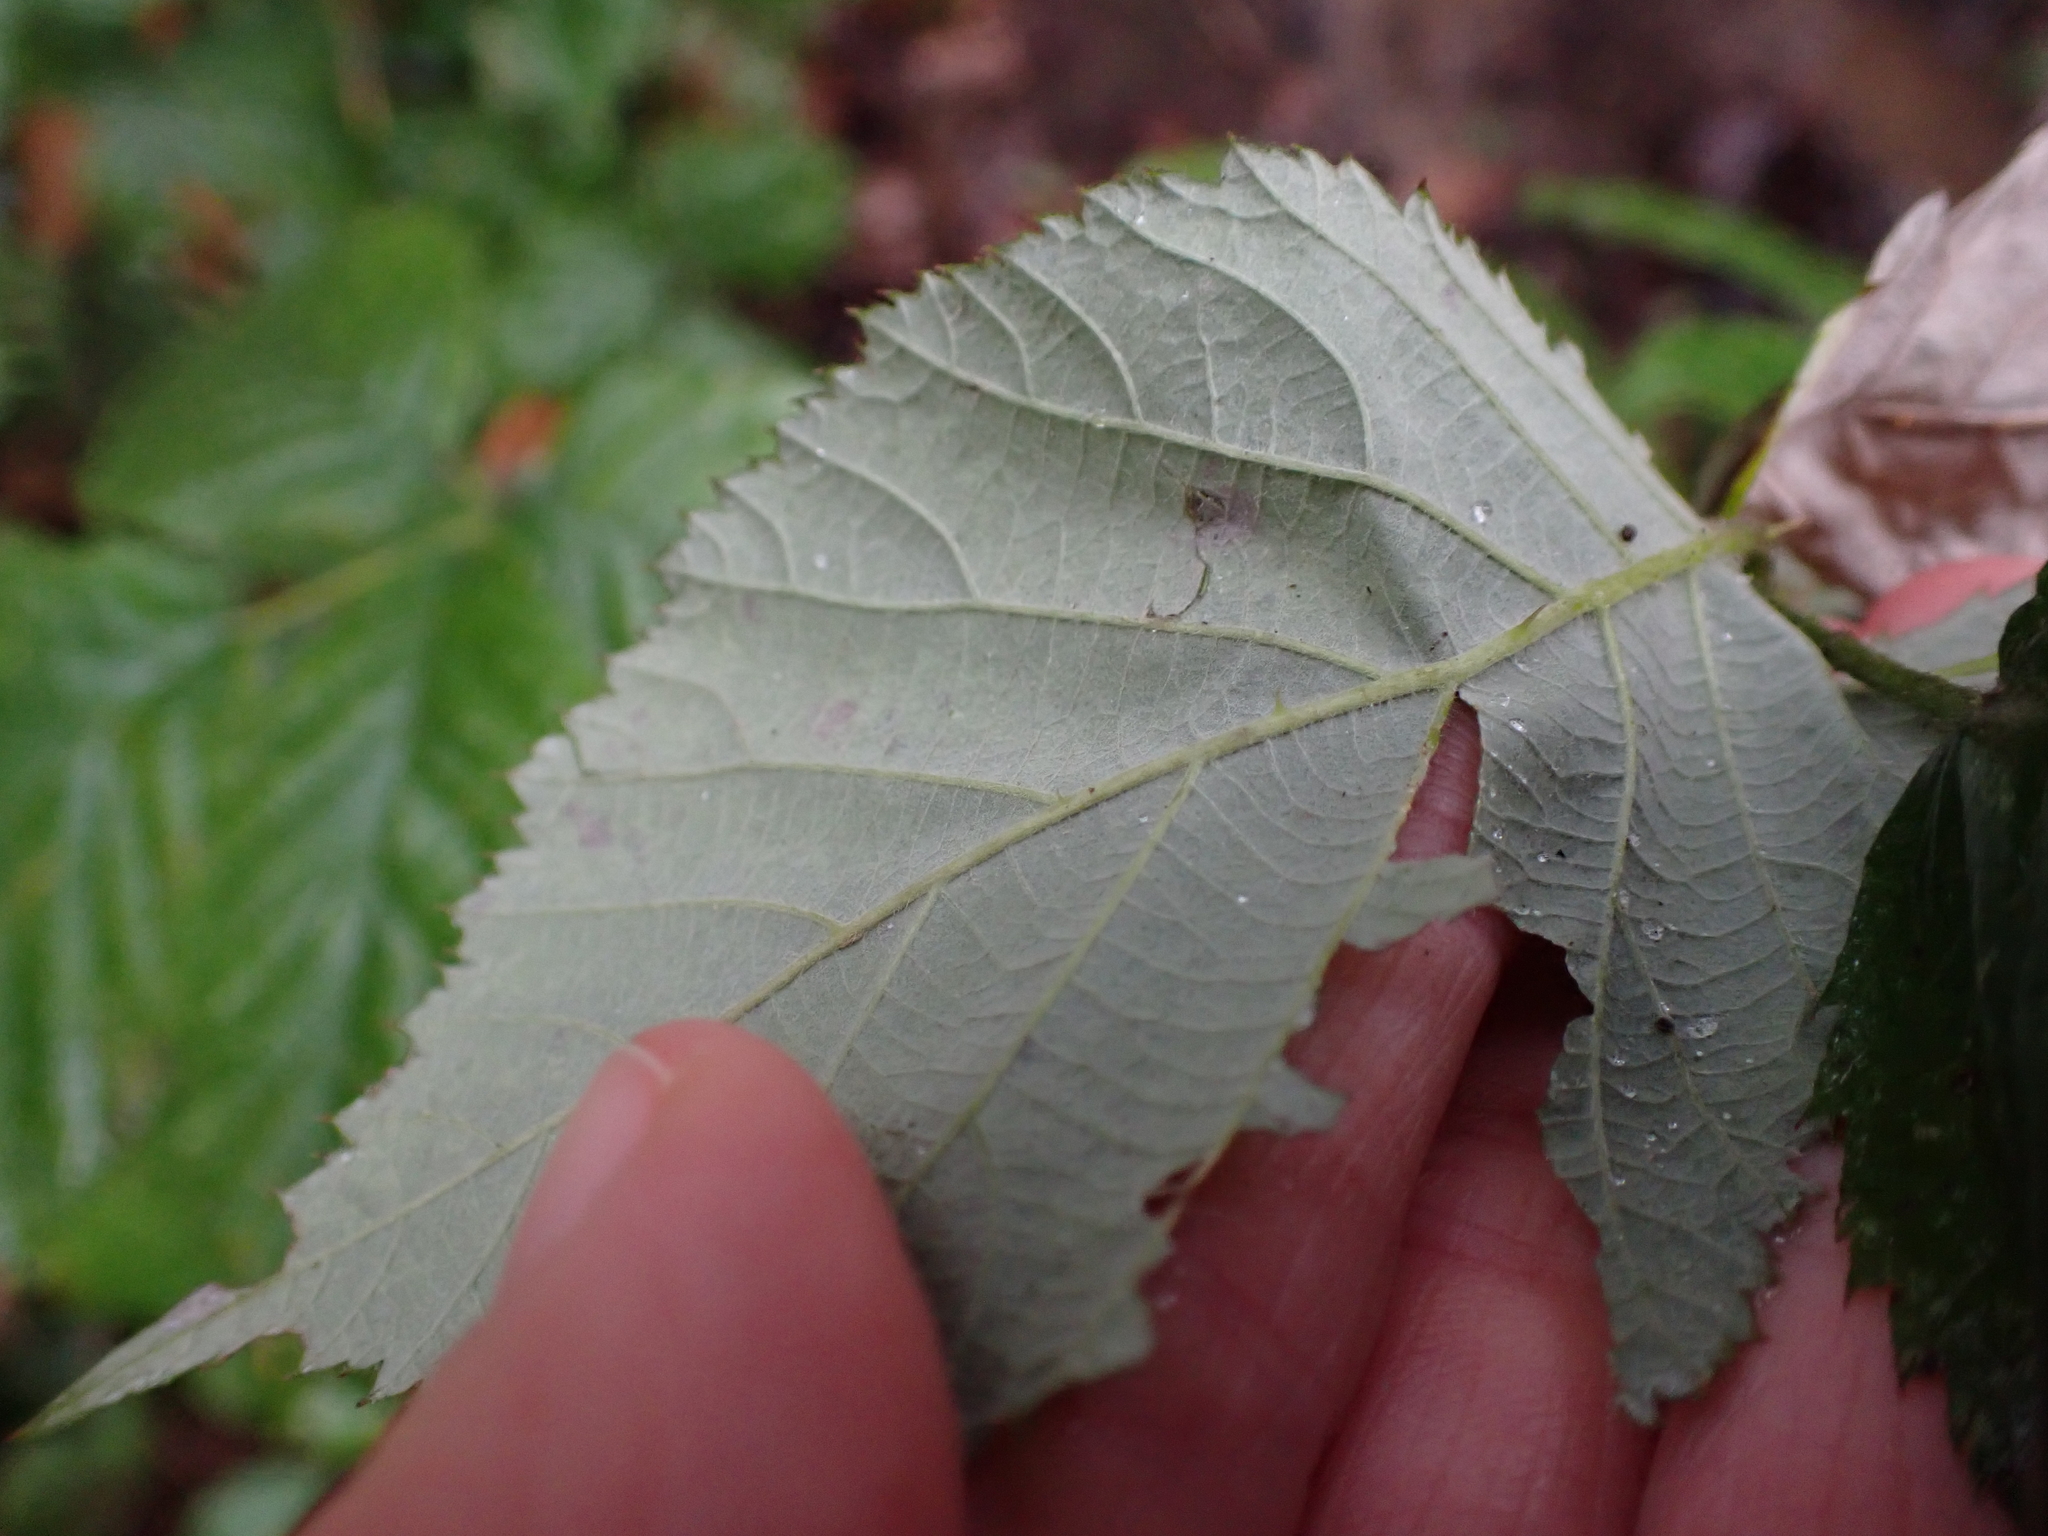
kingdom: Plantae
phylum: Tracheophyta
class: Magnoliopsida
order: Rosales
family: Rosaceae
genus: Rubus
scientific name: Rubus bifrons
